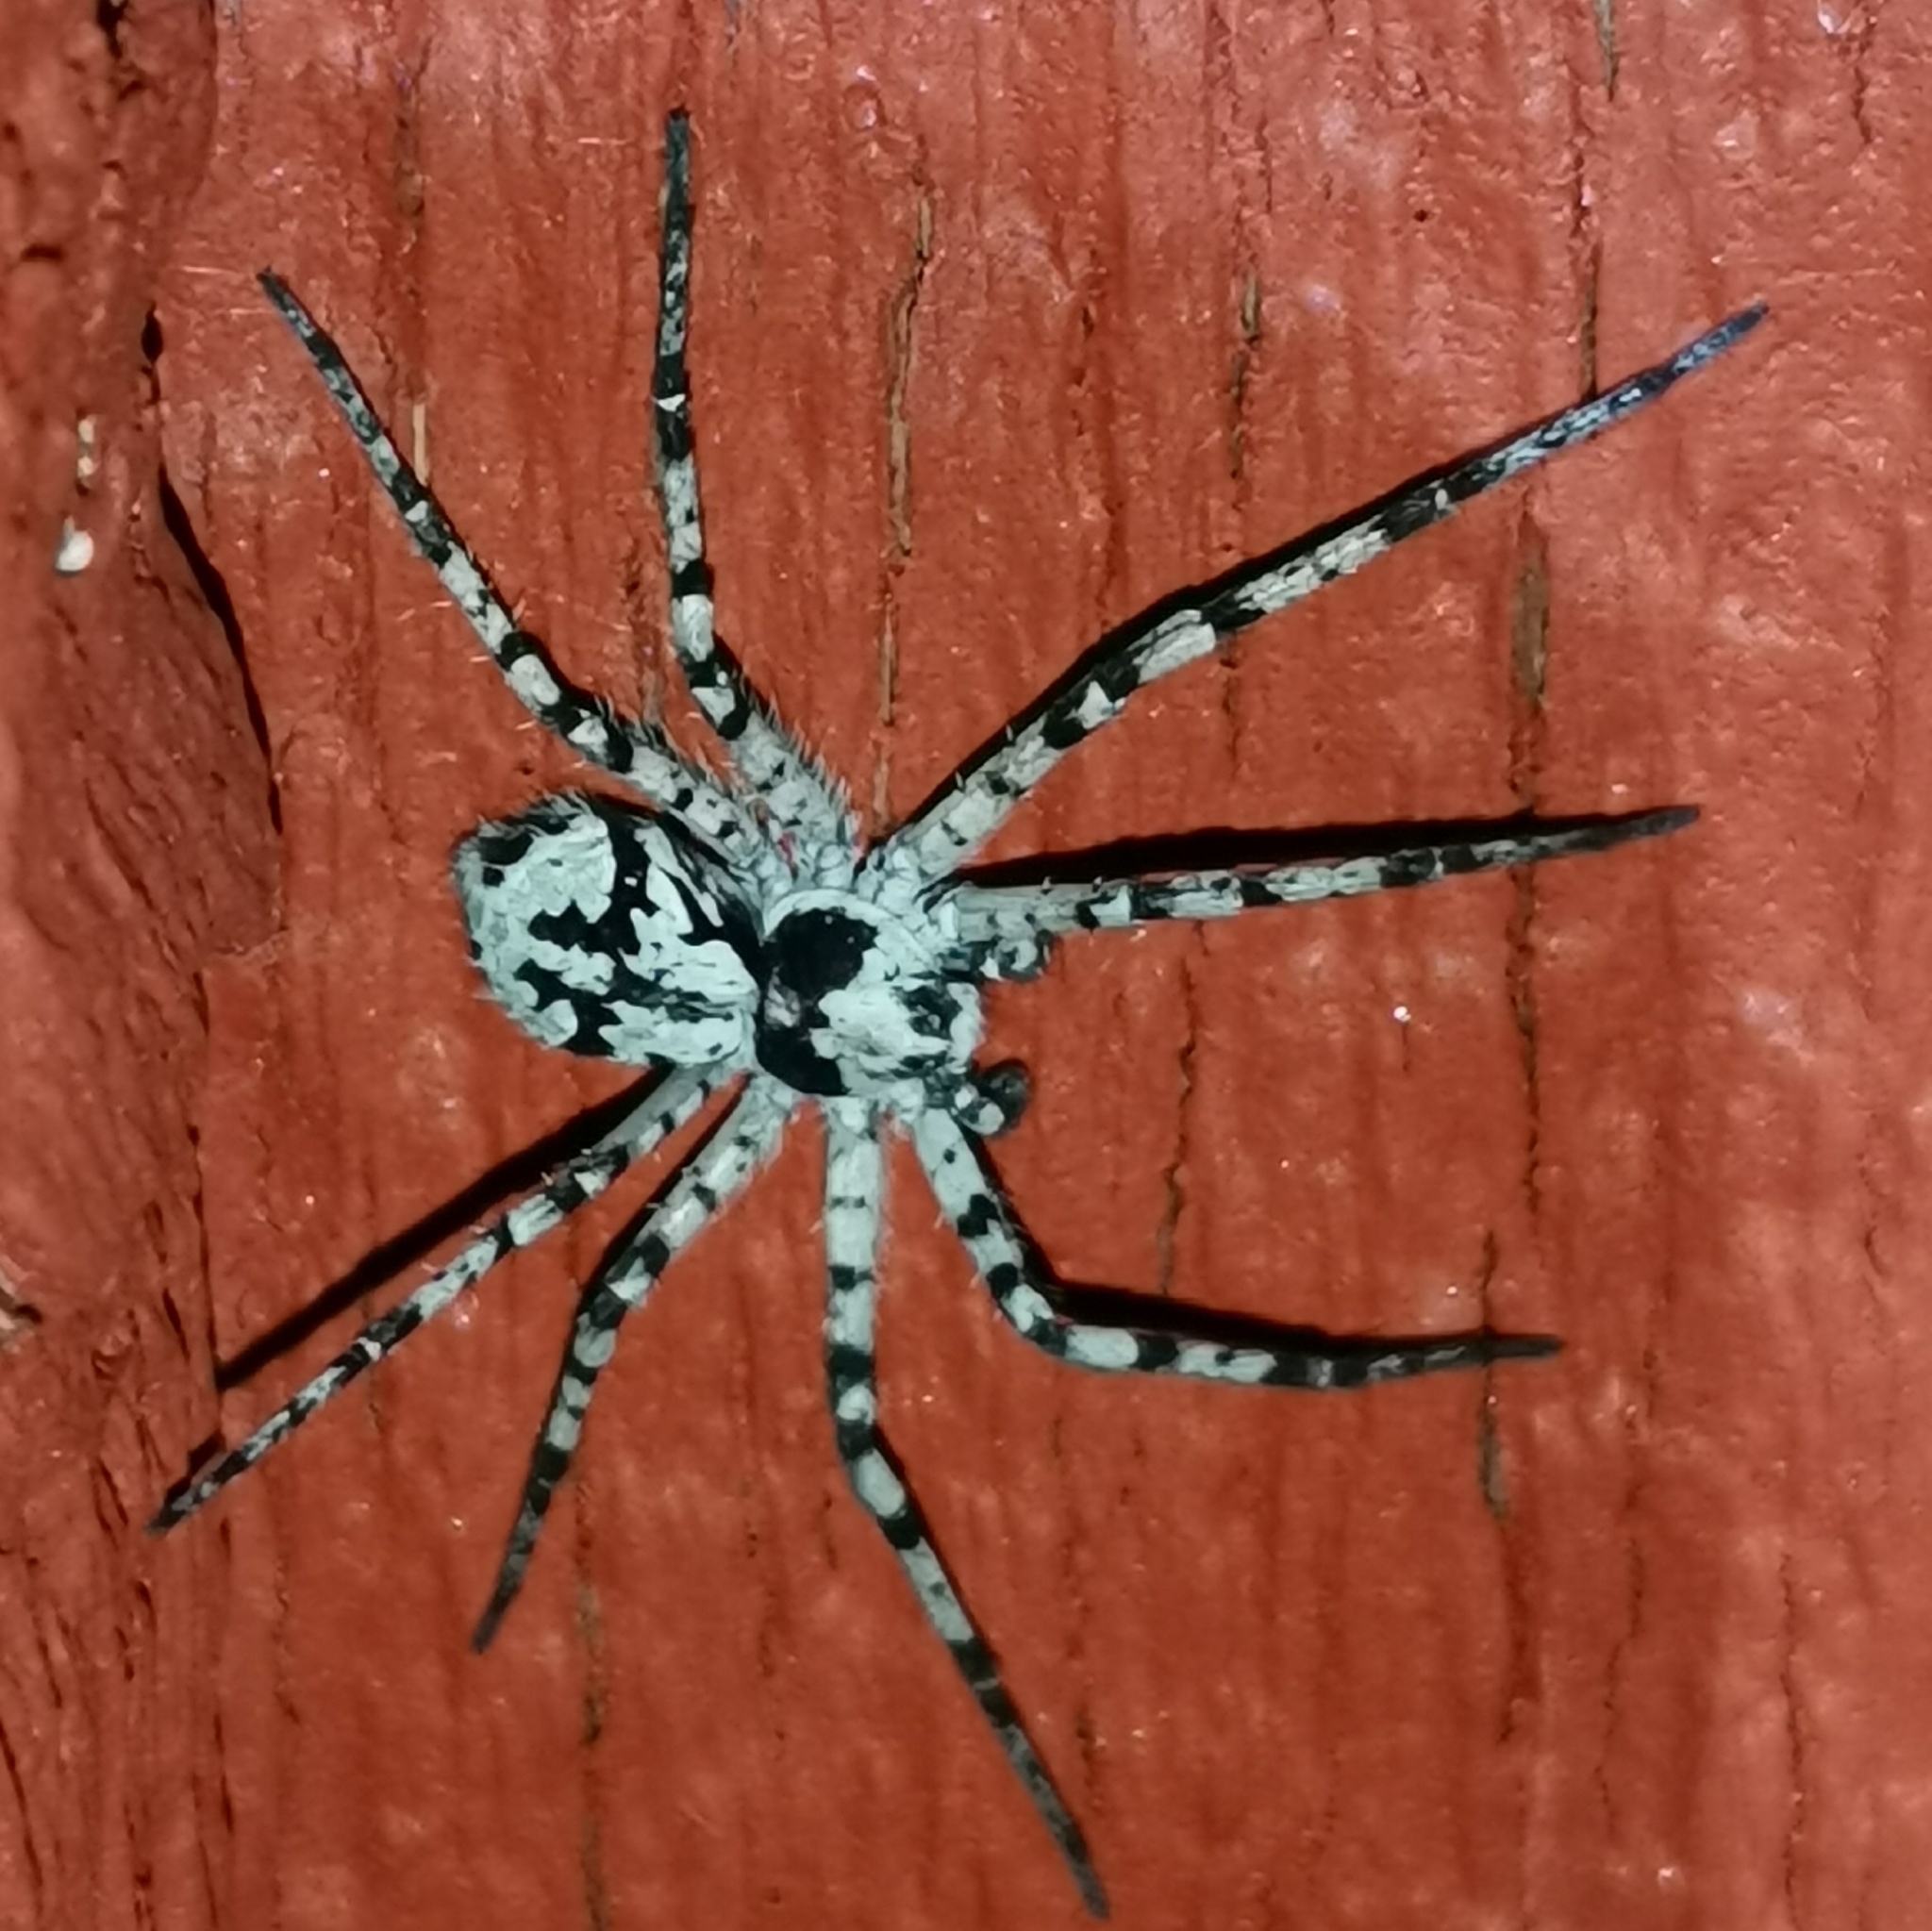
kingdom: Animalia
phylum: Arthropoda
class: Arachnida
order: Araneae
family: Philodromidae
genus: Philodromus
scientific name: Philodromus margaritatus
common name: Lichen running-spider
